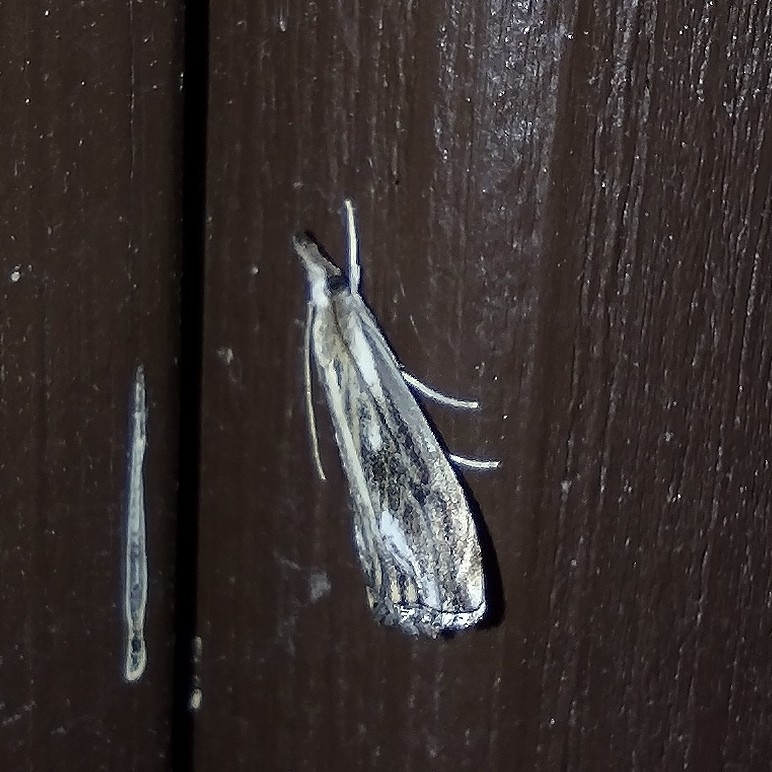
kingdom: Animalia
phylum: Arthropoda
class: Insecta
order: Lepidoptera
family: Crambidae
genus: Catoptria
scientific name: Catoptria verellus
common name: Marbled grass-veneer
